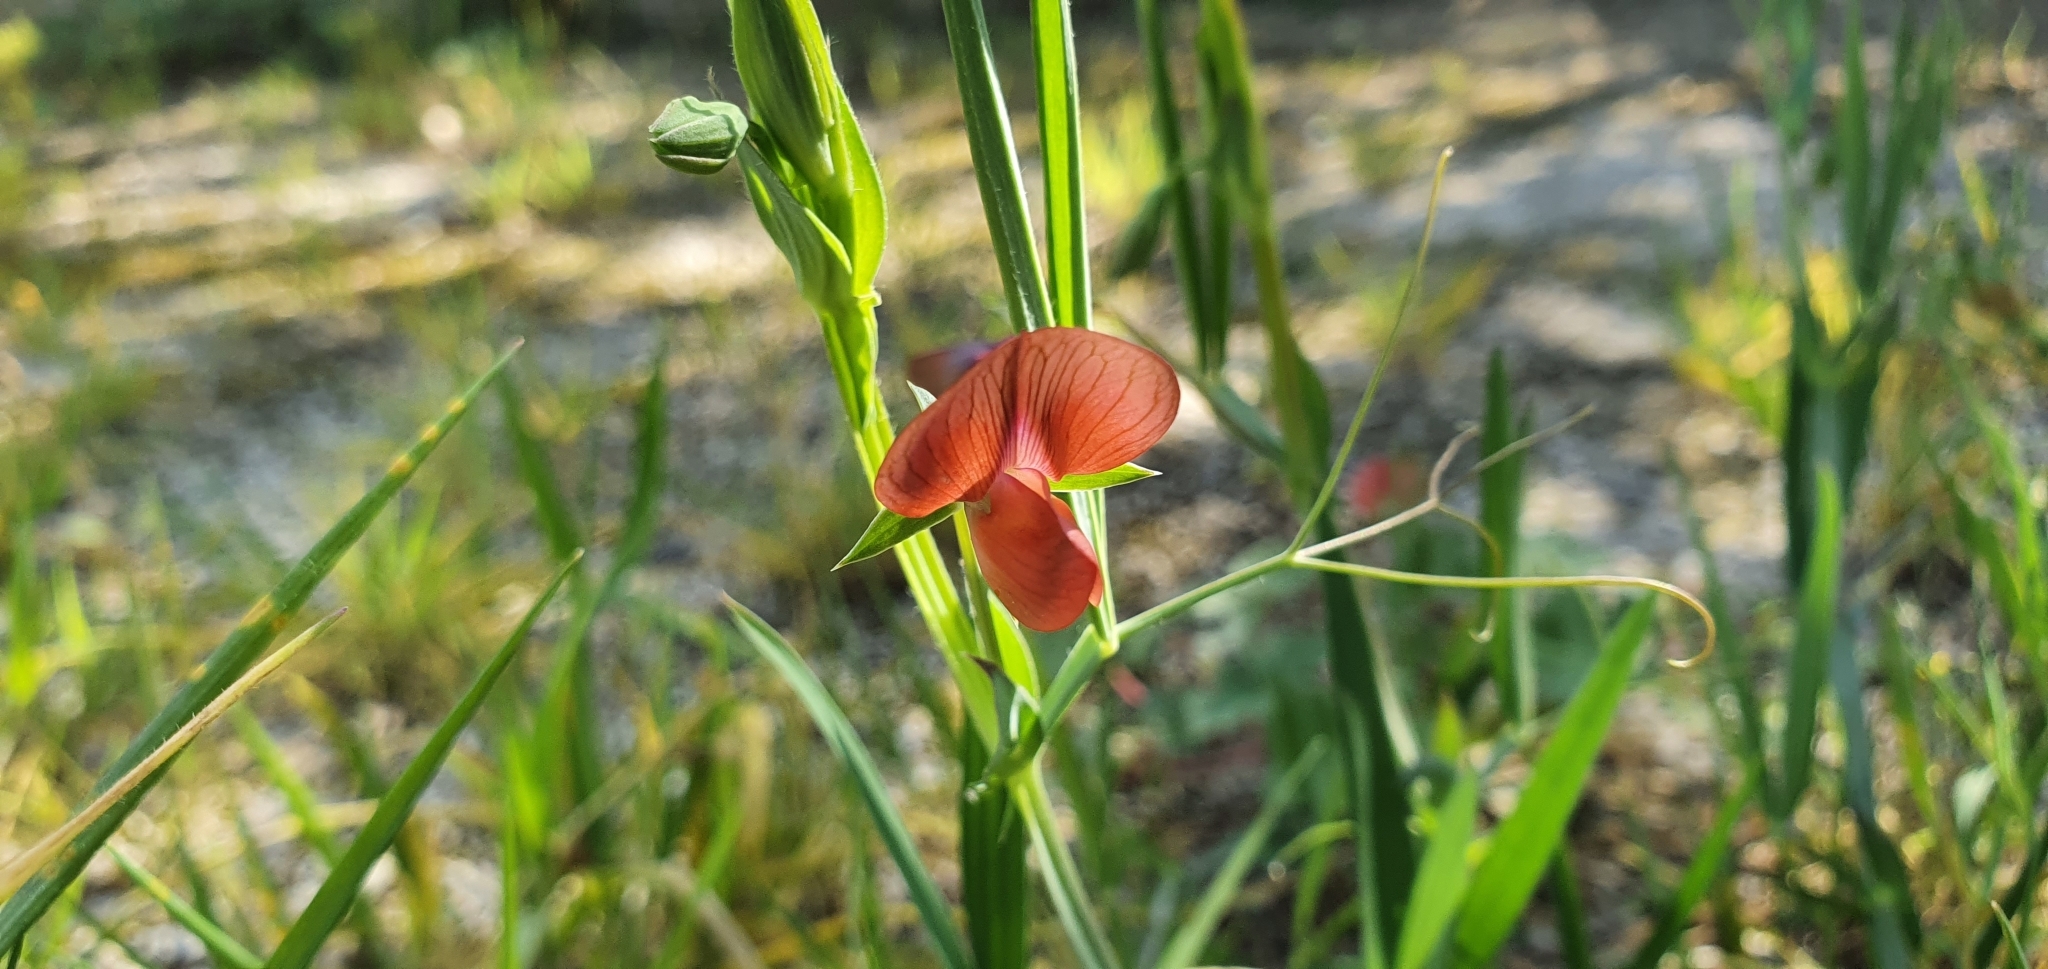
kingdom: Plantae
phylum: Tracheophyta
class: Magnoliopsida
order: Fabales
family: Fabaceae
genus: Lathyrus
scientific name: Lathyrus cicera
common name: Red vetchling
